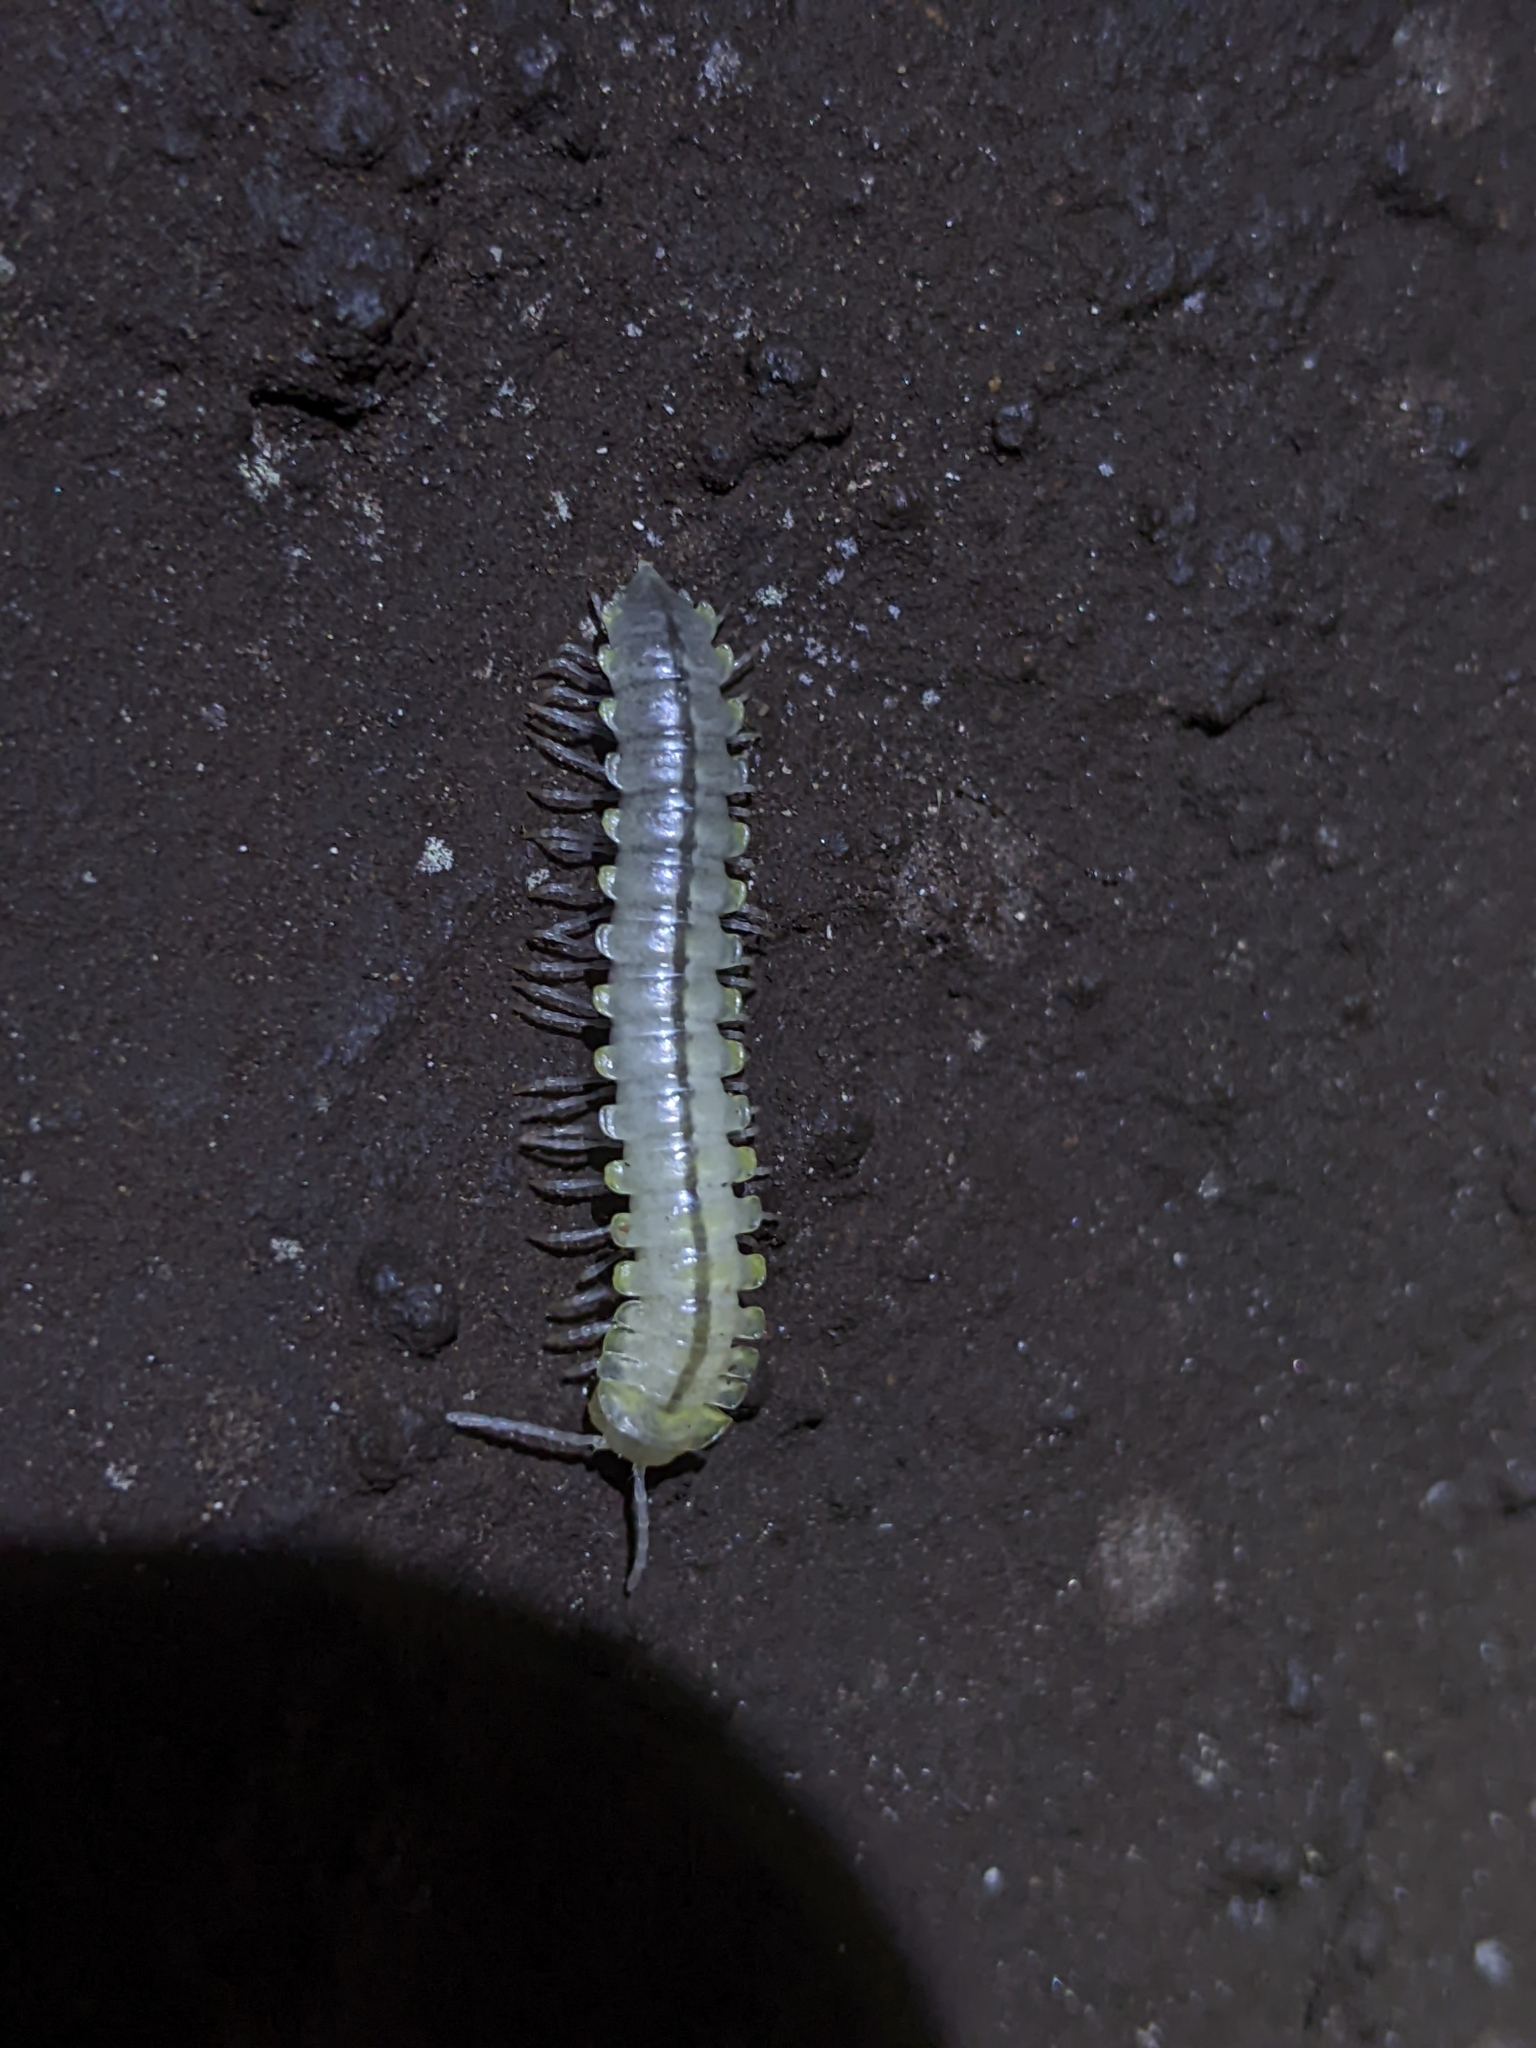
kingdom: Animalia
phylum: Arthropoda
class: Diplopoda
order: Polydesmida
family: Xystodesmidae
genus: Sigmocheir
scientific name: Sigmocheir calaveras
